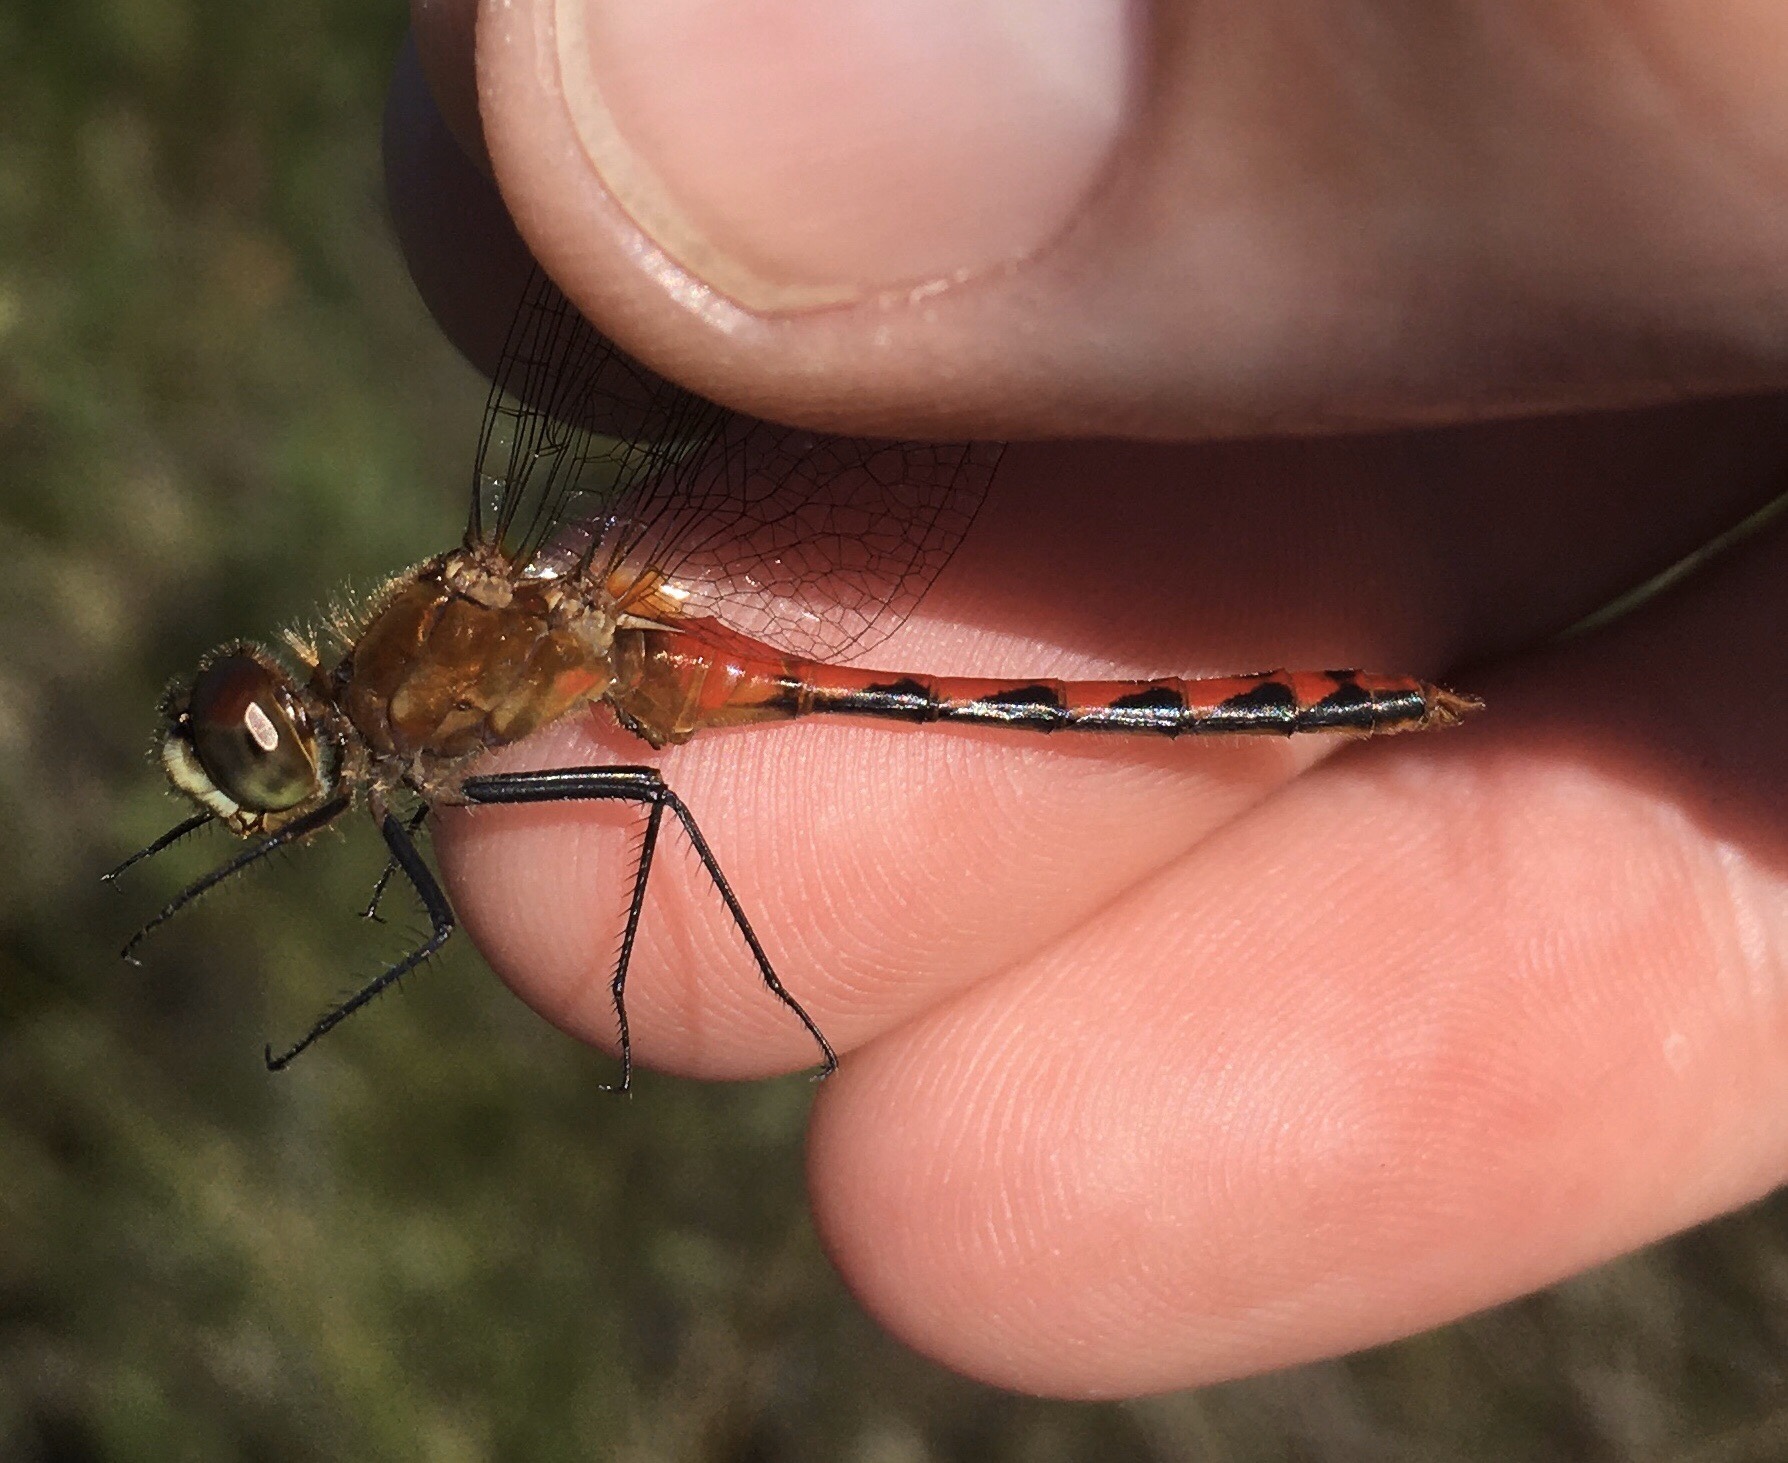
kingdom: Animalia
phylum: Arthropoda
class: Insecta
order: Odonata
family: Libellulidae
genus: Sympetrum
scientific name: Sympetrum obtrusum
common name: White-faced meadowhawk
